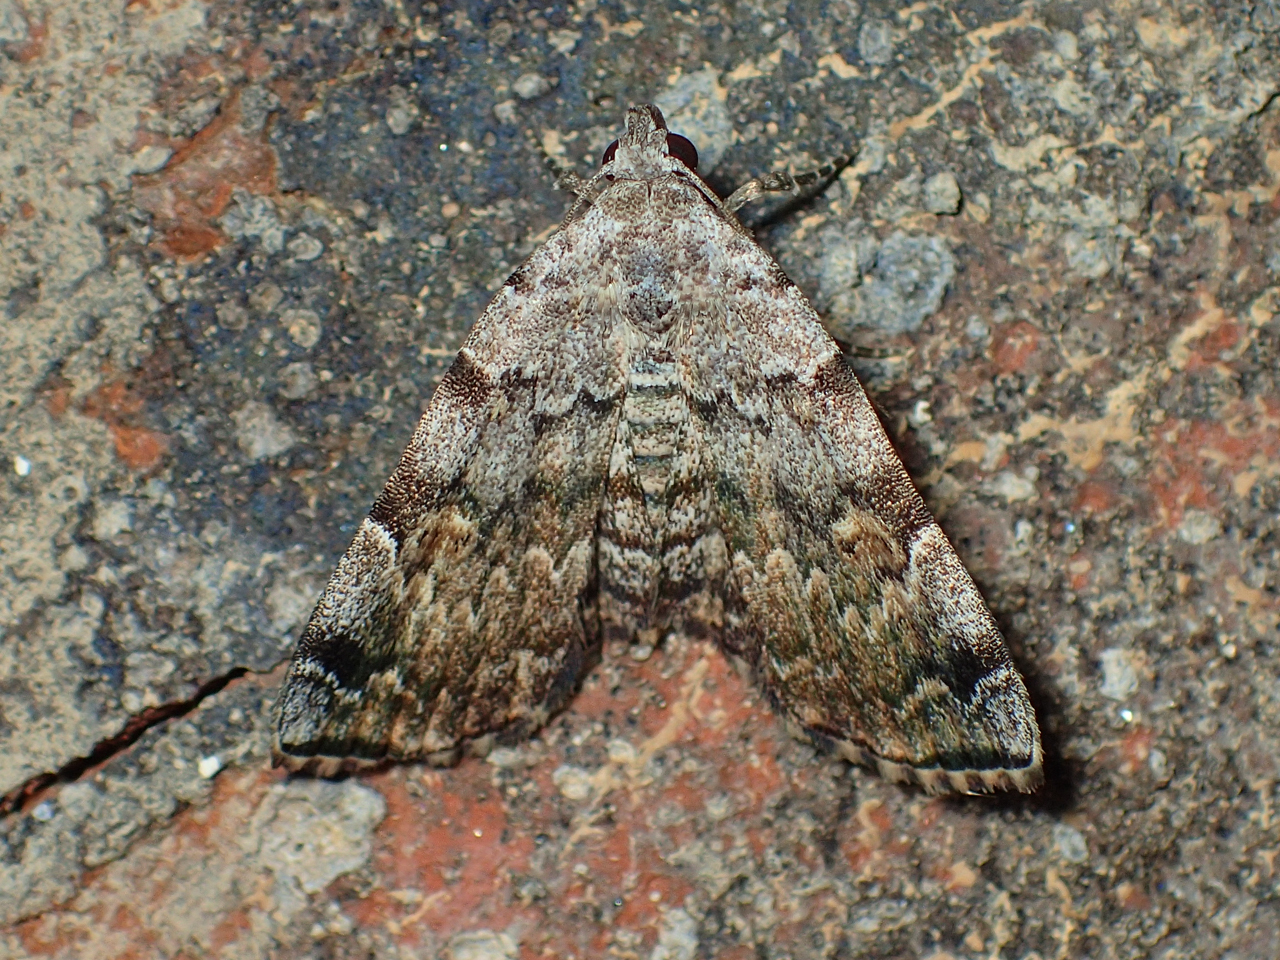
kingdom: Animalia
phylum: Arthropoda
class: Insecta
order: Lepidoptera
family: Erebidae
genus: Idia
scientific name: Idia americalis
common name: American idia moth
